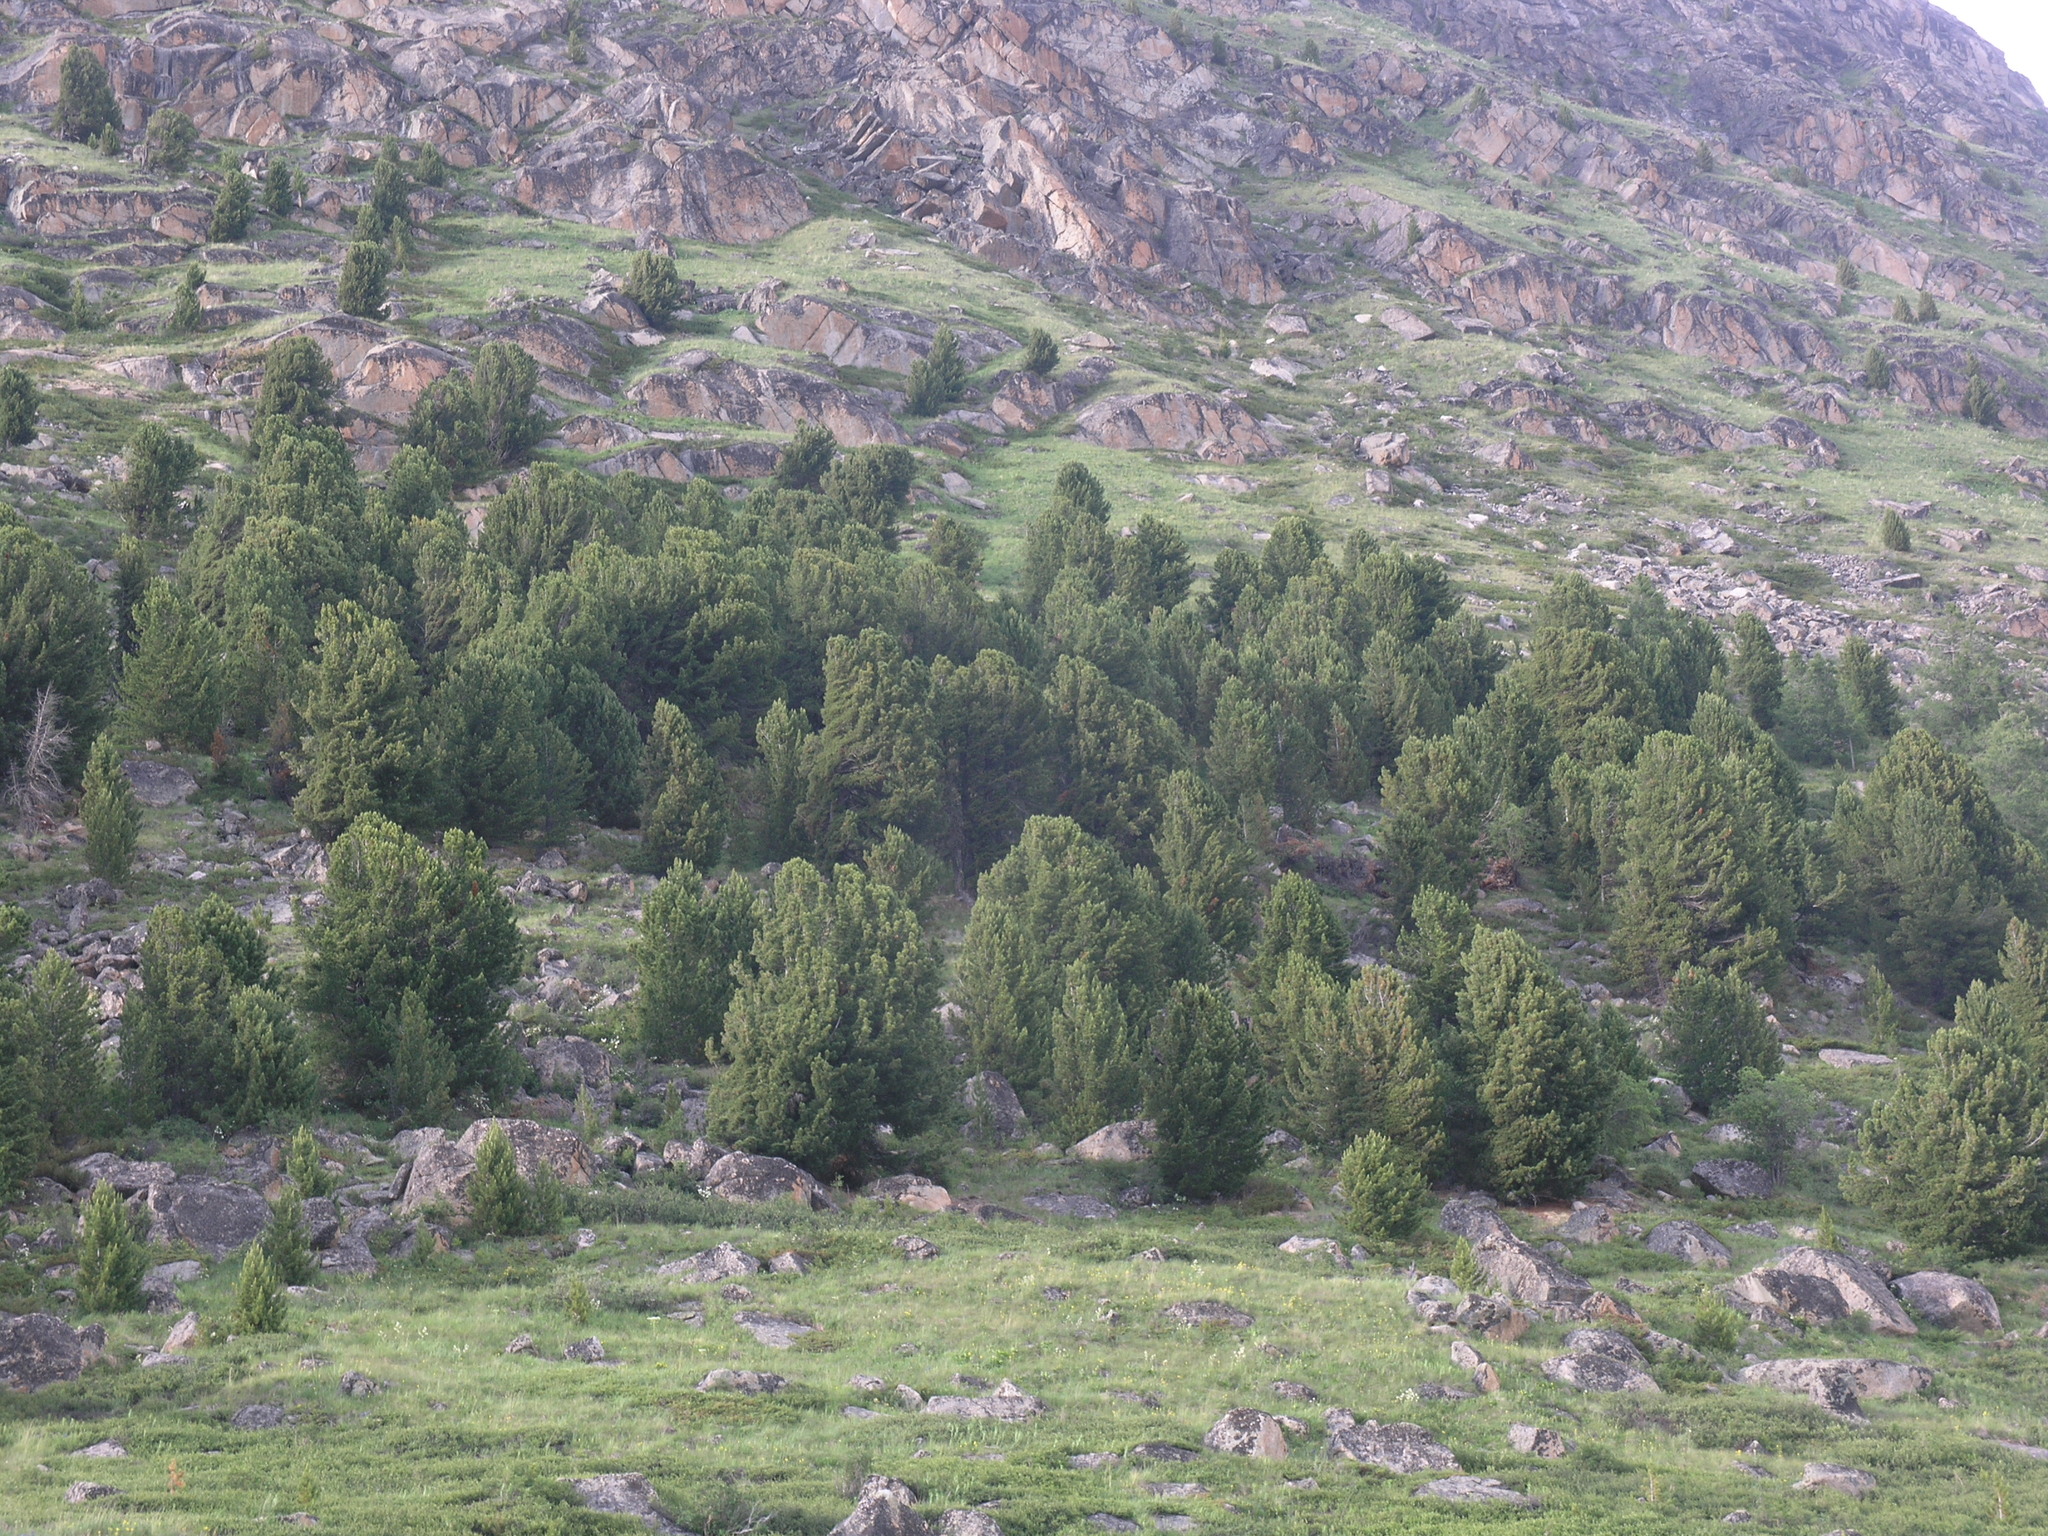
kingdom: Plantae
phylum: Tracheophyta
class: Pinopsida
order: Pinales
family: Pinaceae
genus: Pinus
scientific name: Pinus sibirica
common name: Siberian pine
